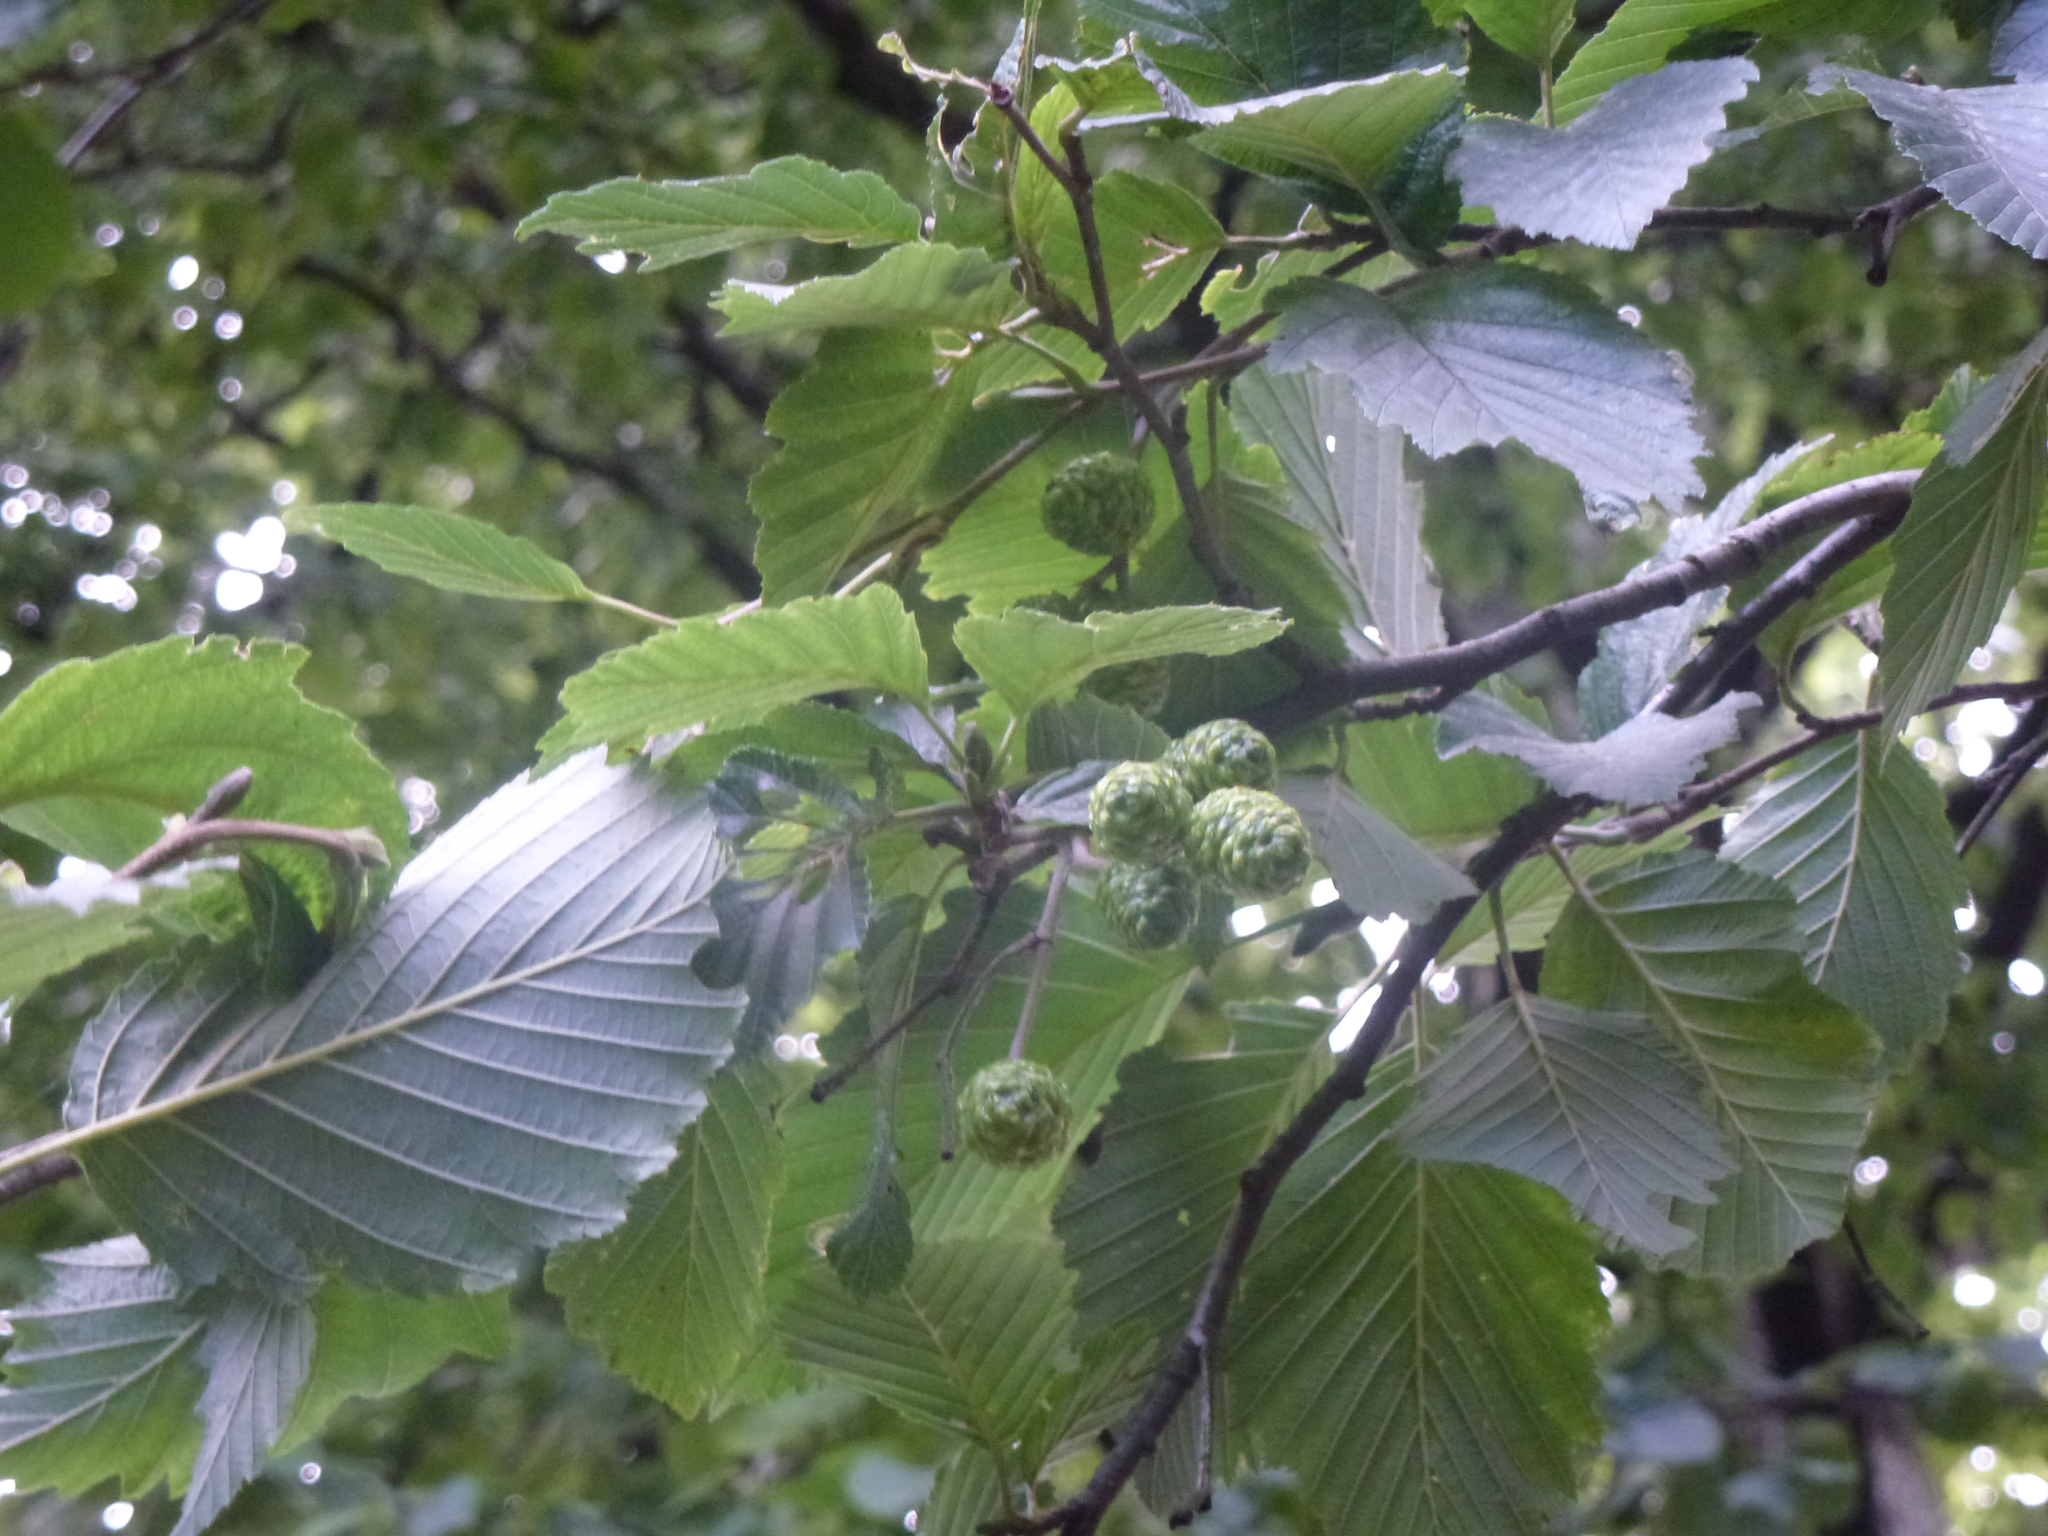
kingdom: Plantae
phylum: Tracheophyta
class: Magnoliopsida
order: Fagales
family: Betulaceae
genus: Alnus
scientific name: Alnus incana
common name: Grey alder
